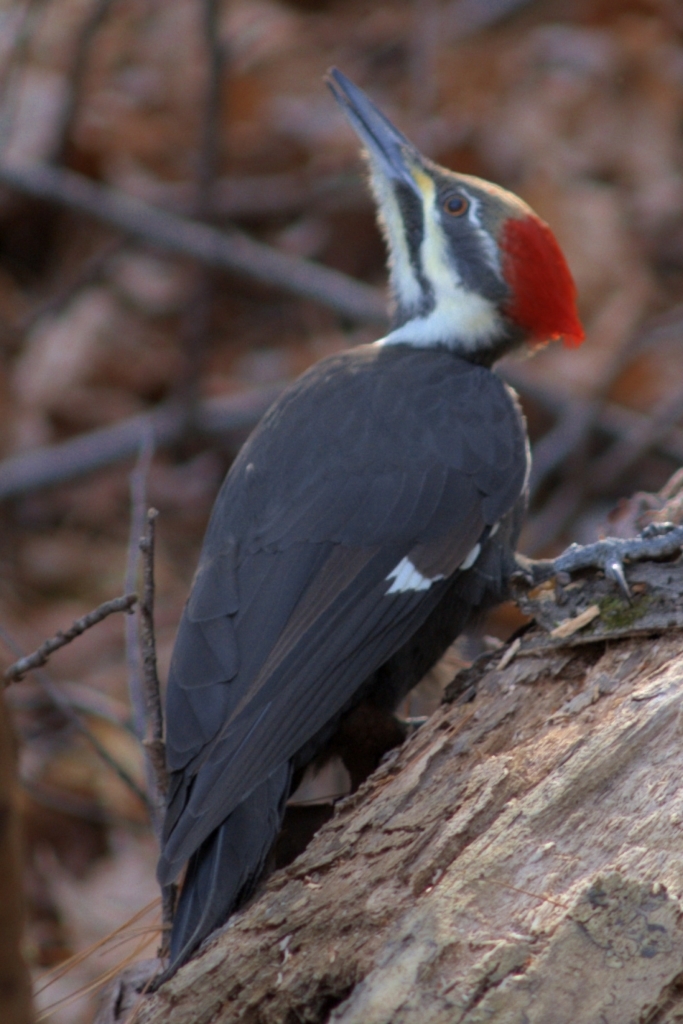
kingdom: Animalia
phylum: Chordata
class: Aves
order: Piciformes
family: Picidae
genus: Dryocopus
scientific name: Dryocopus pileatus
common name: Pileated woodpecker
